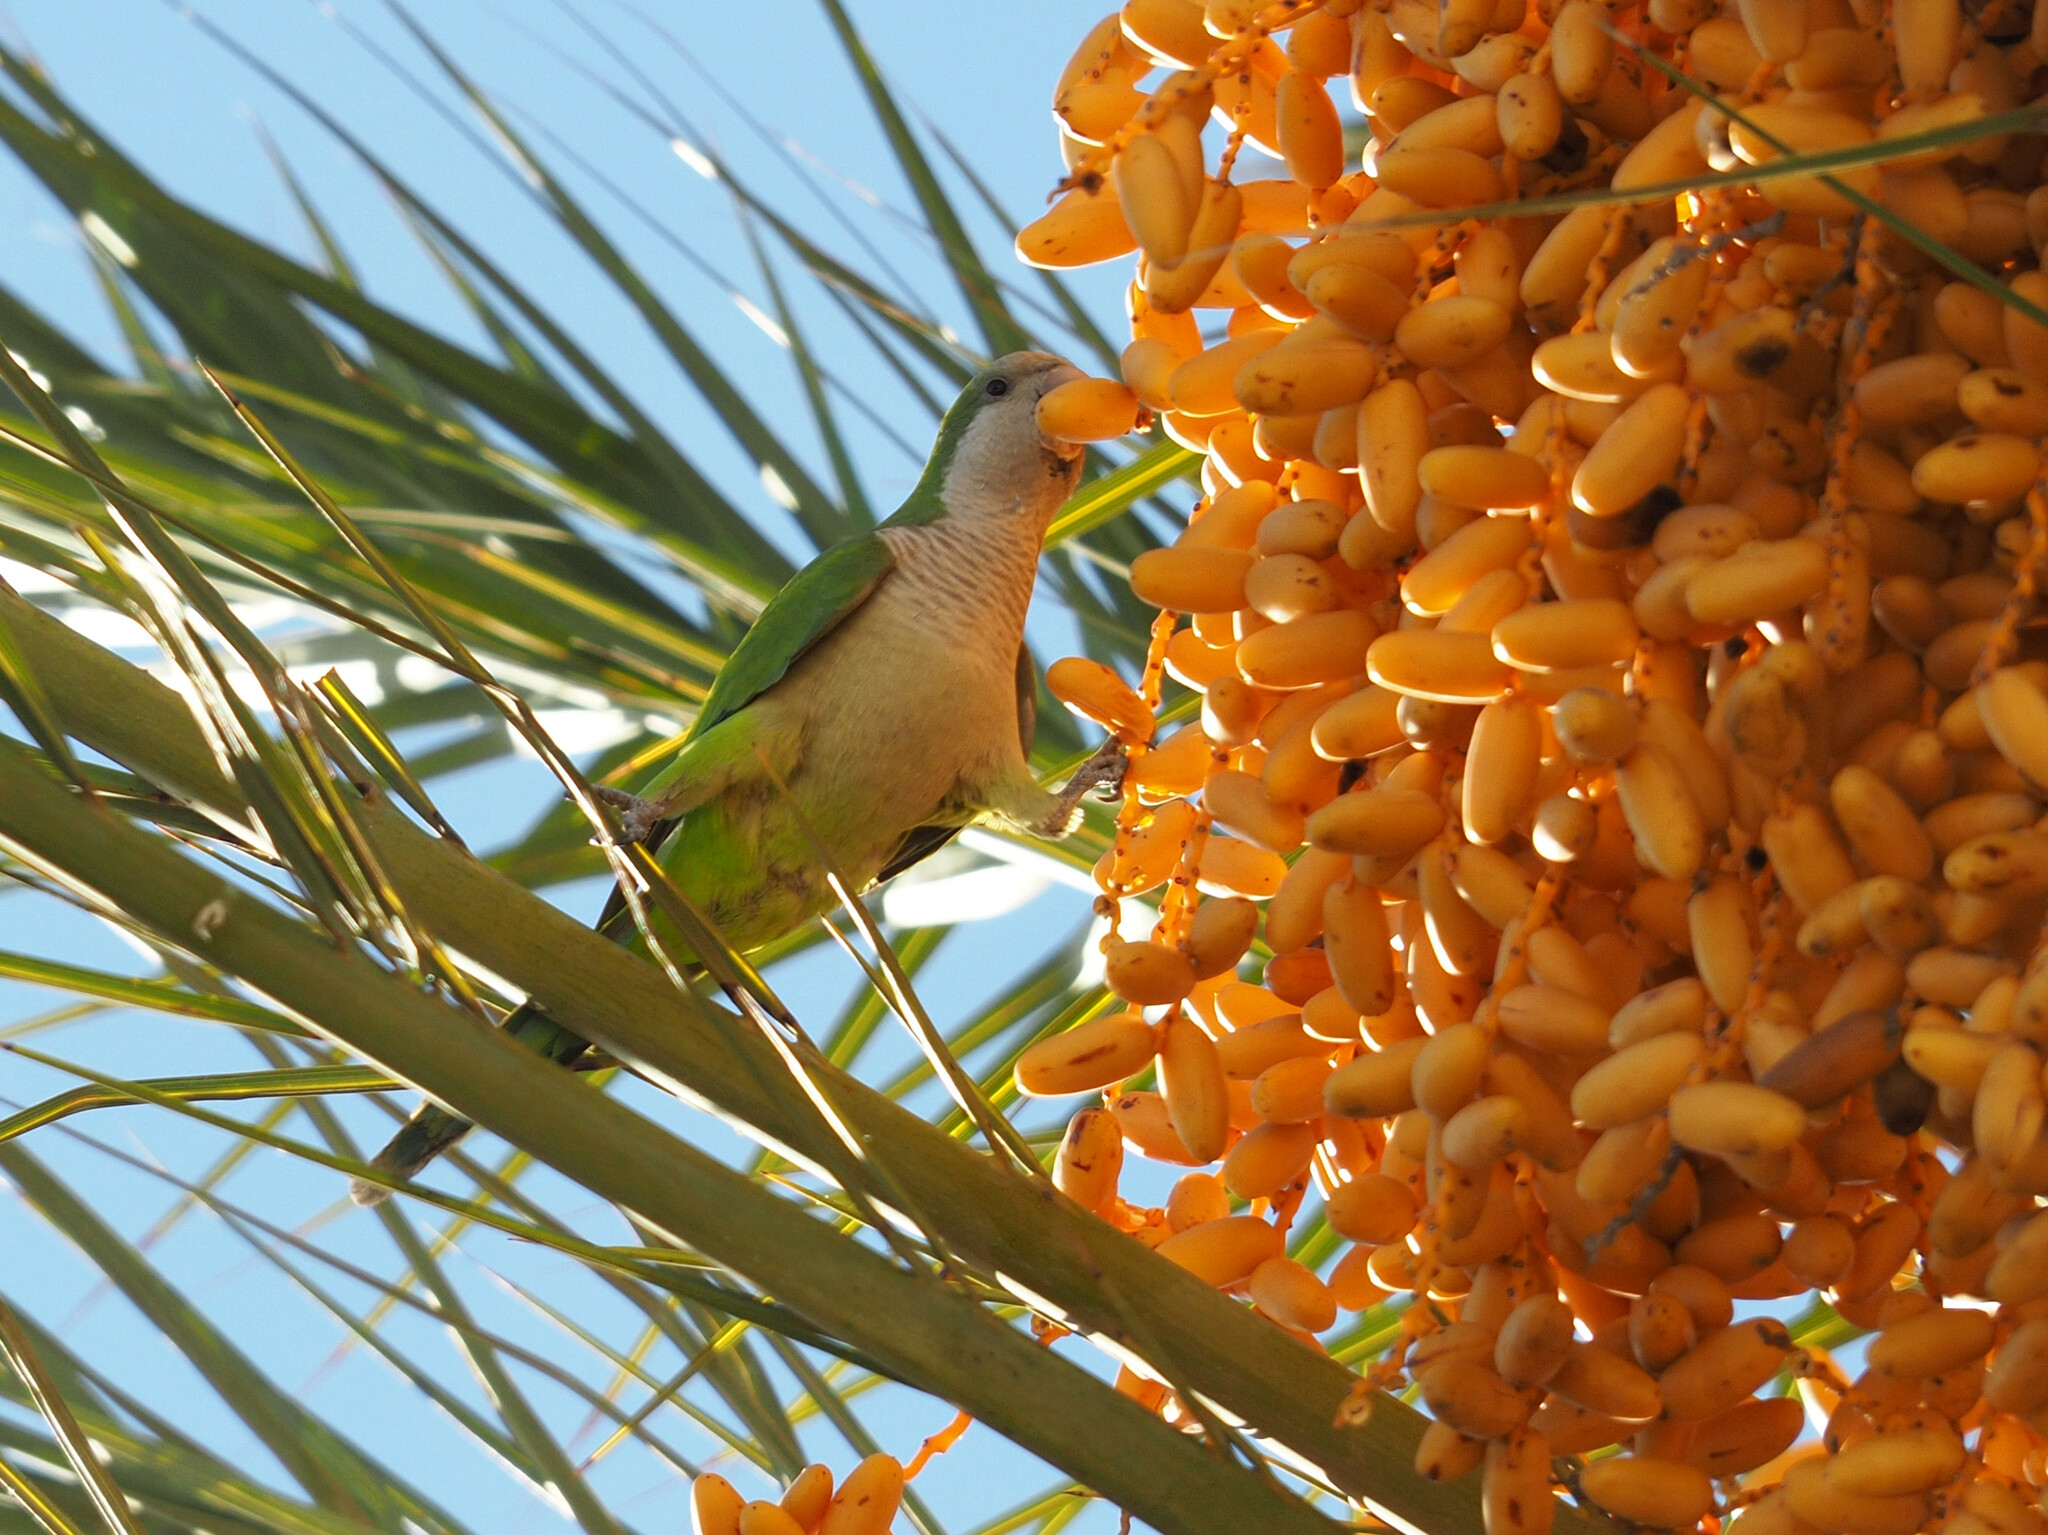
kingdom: Animalia
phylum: Chordata
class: Aves
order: Psittaciformes
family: Psittacidae
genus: Myiopsitta
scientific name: Myiopsitta monachus
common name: Monk parakeet
